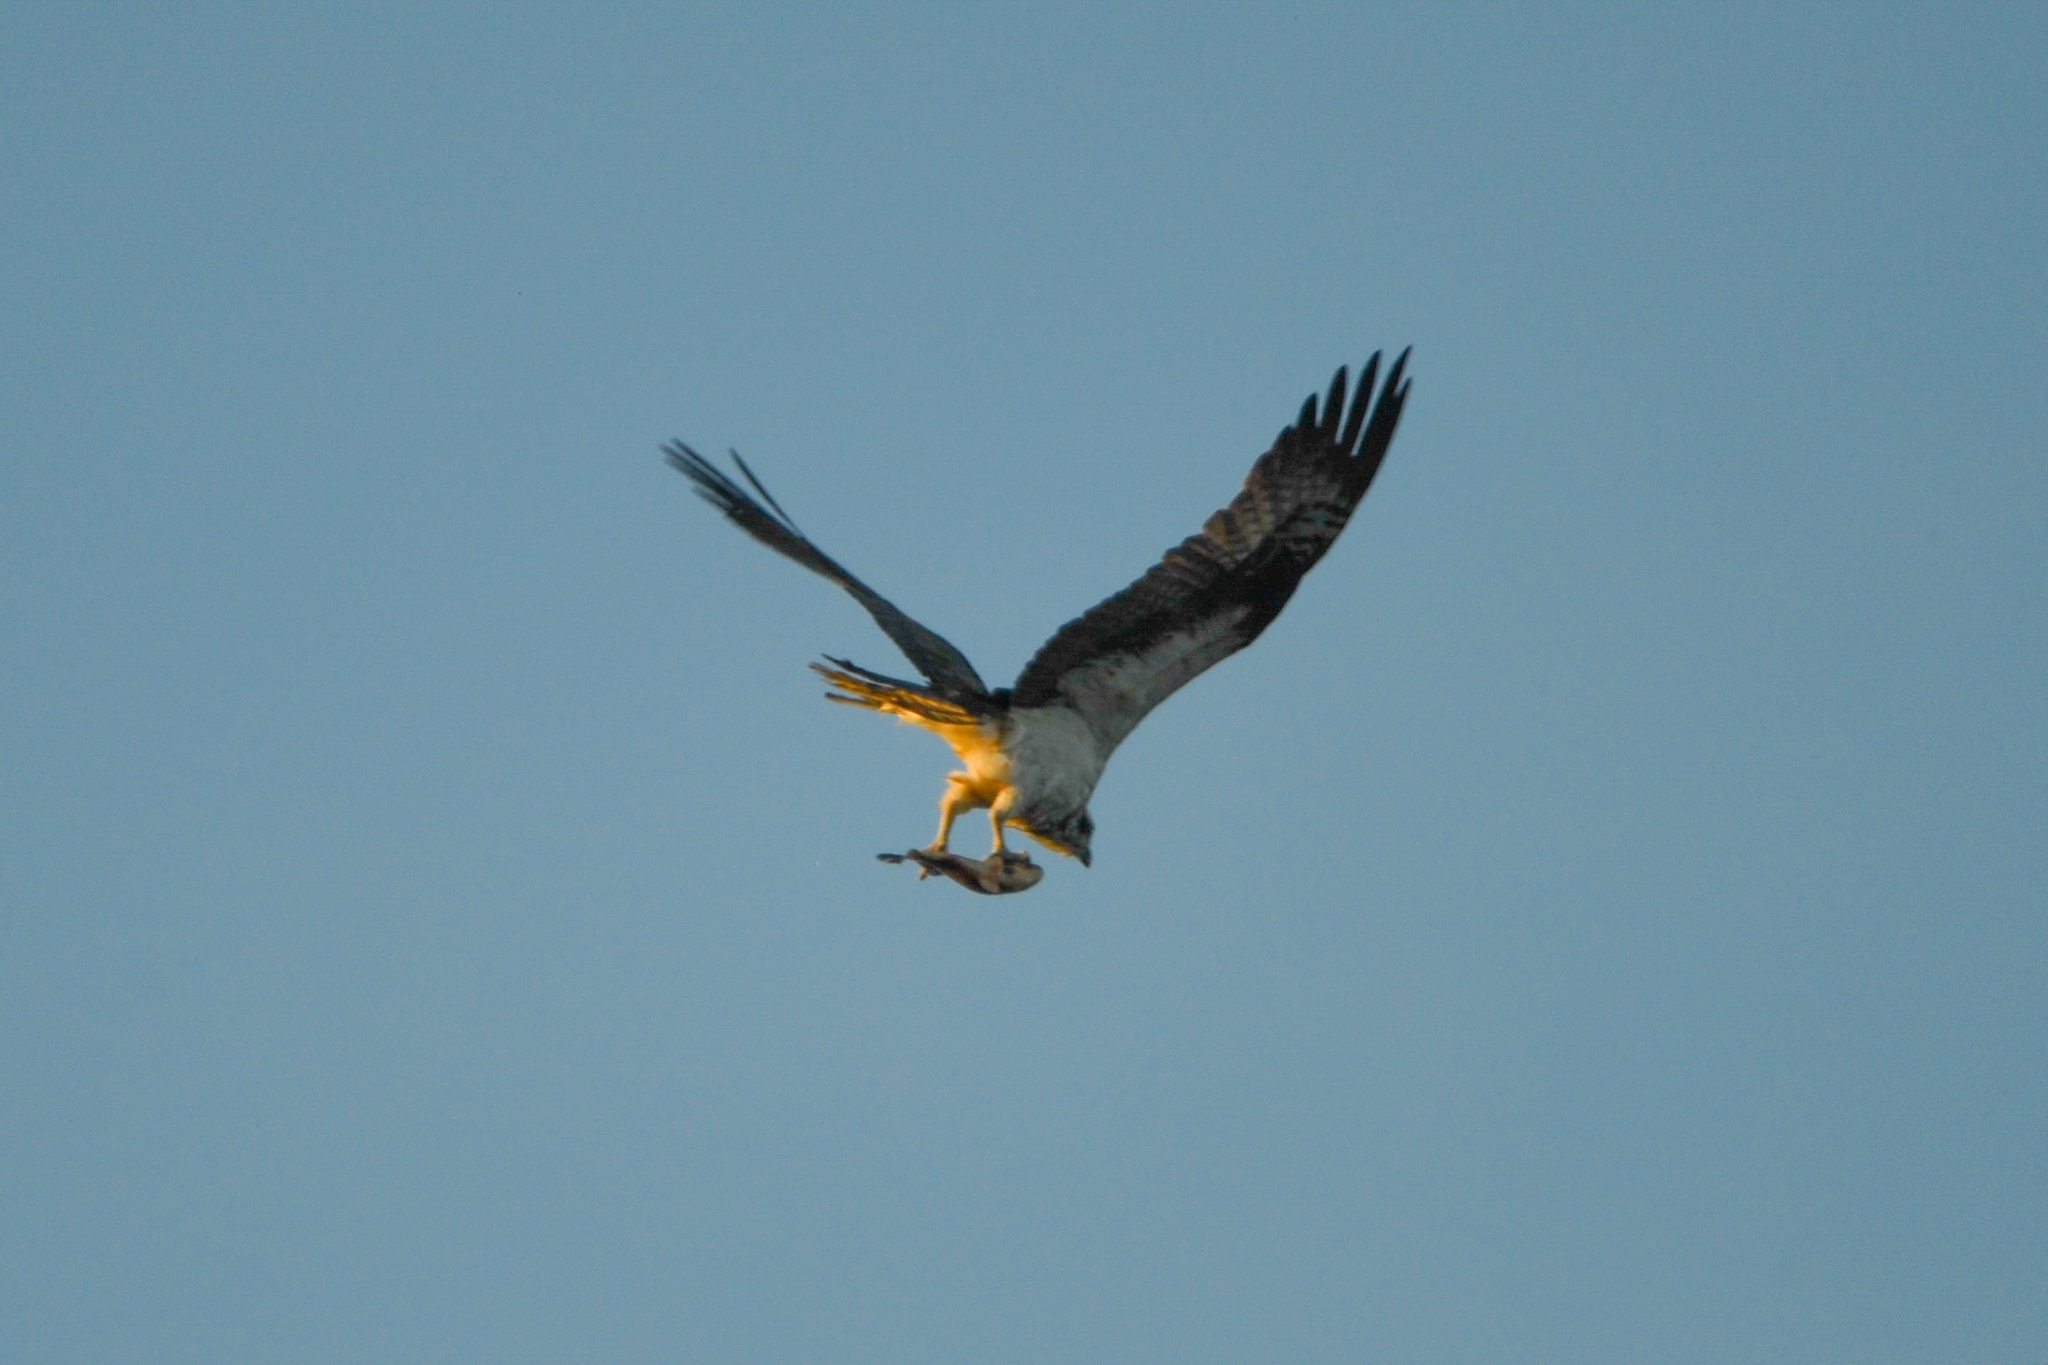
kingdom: Animalia
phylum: Chordata
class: Aves
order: Accipitriformes
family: Pandionidae
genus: Pandion
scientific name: Pandion haliaetus
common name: Osprey
